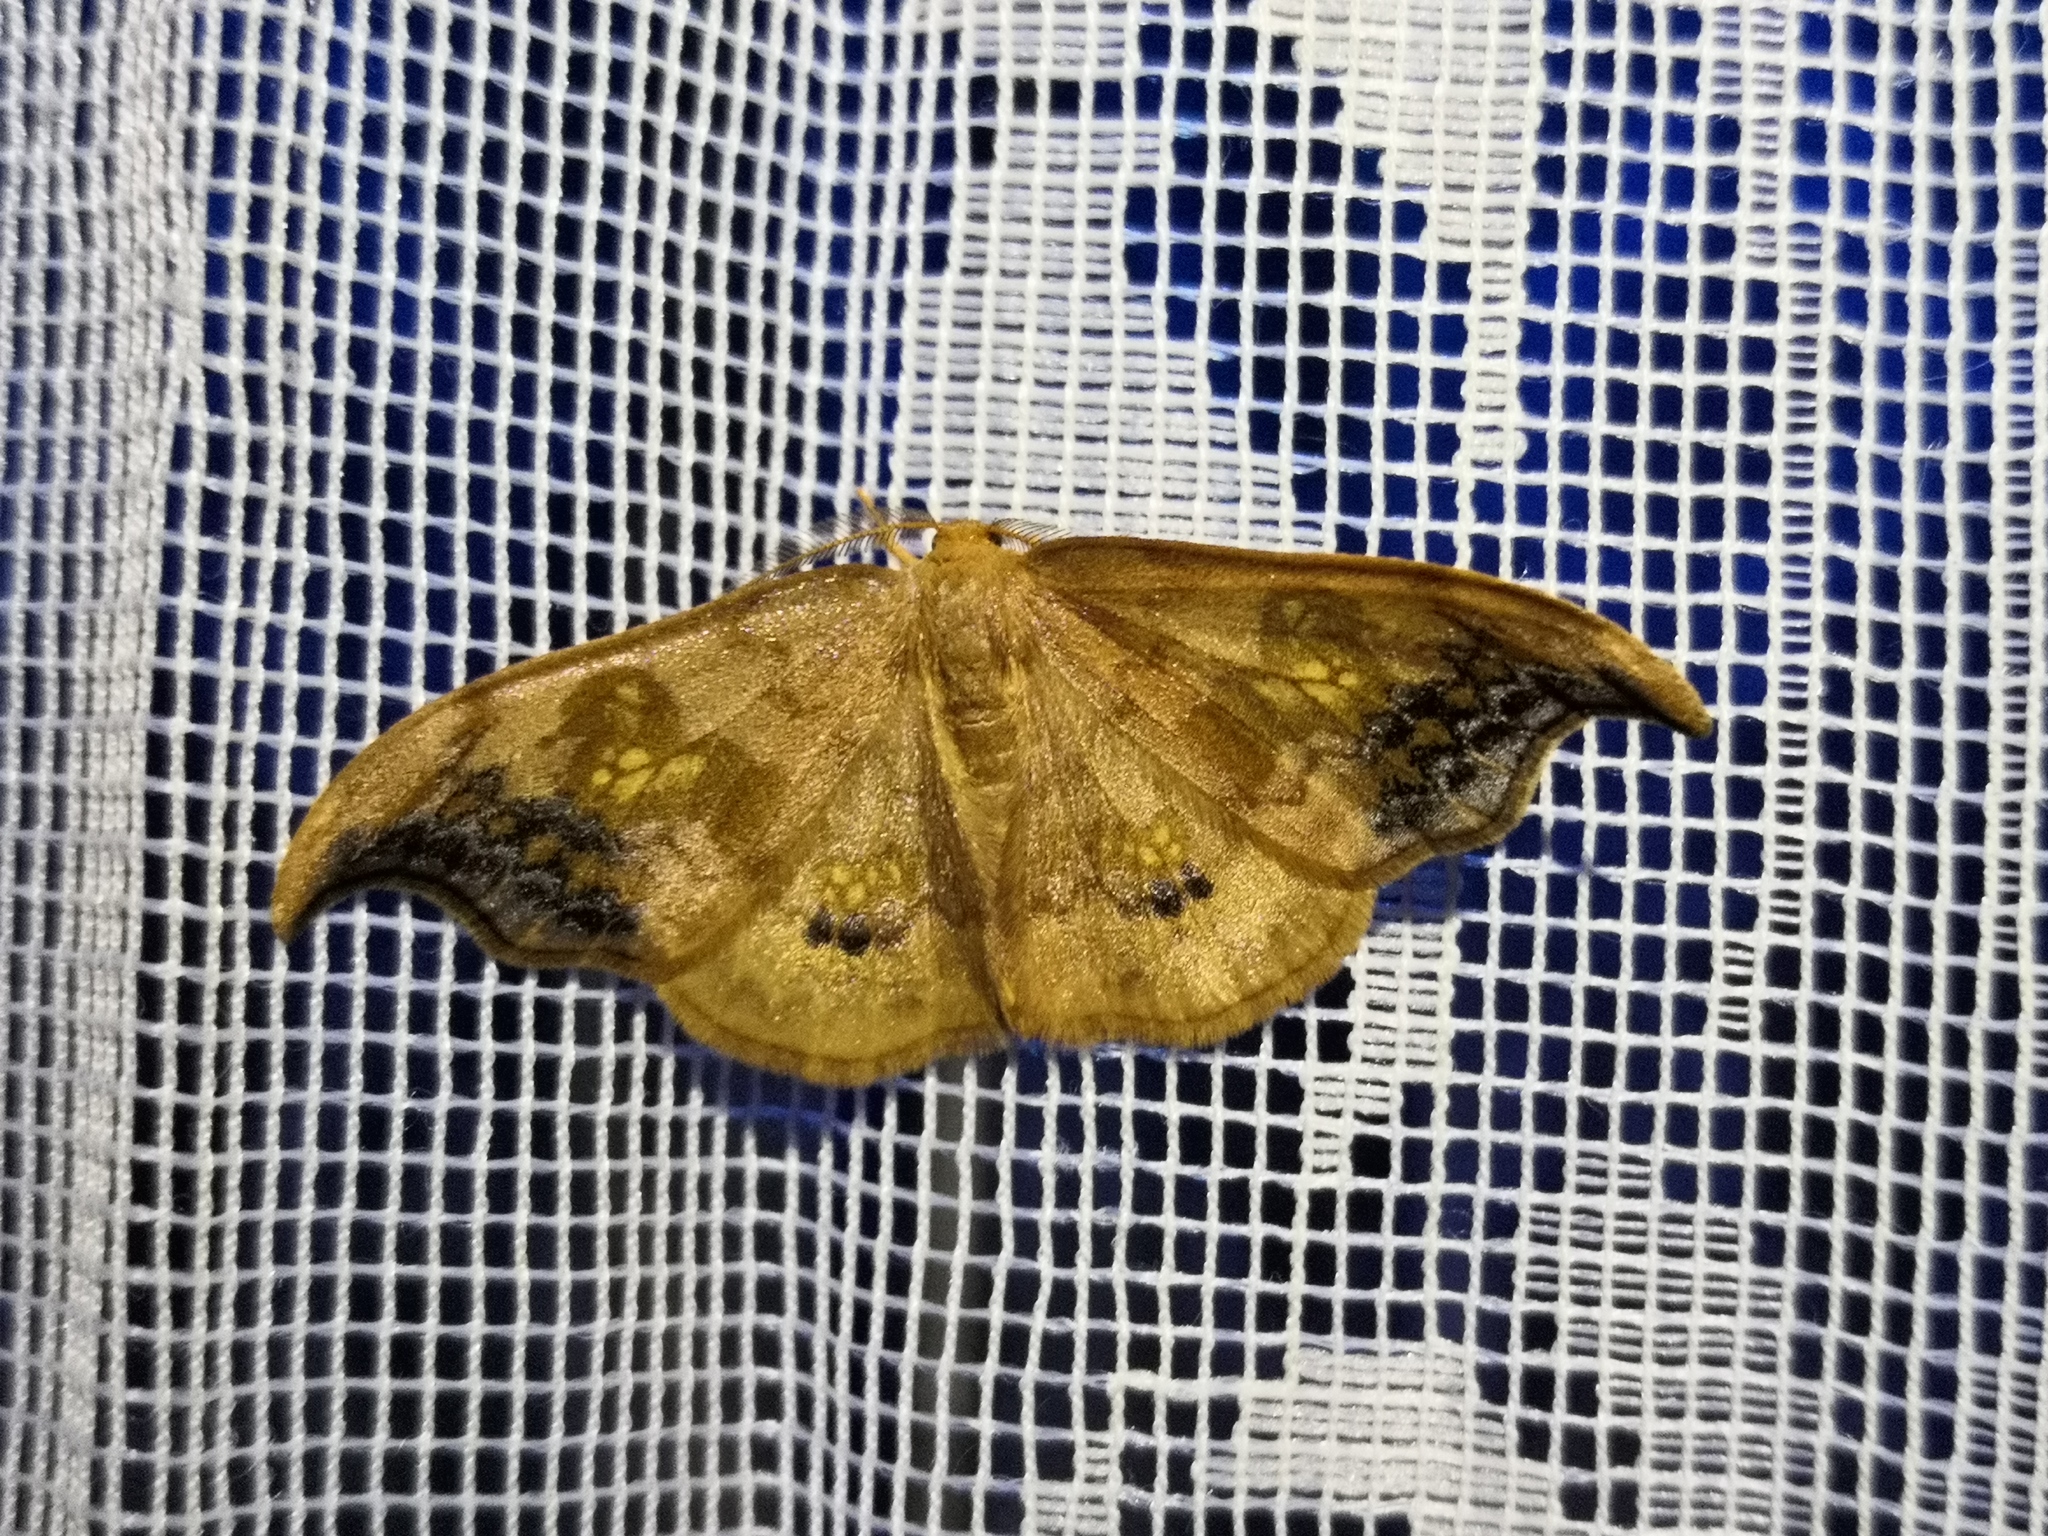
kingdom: Animalia
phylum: Arthropoda
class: Insecta
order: Lepidoptera
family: Drepanidae
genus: Sabra
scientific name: Sabra harpagula
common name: Scarce hook-tip
